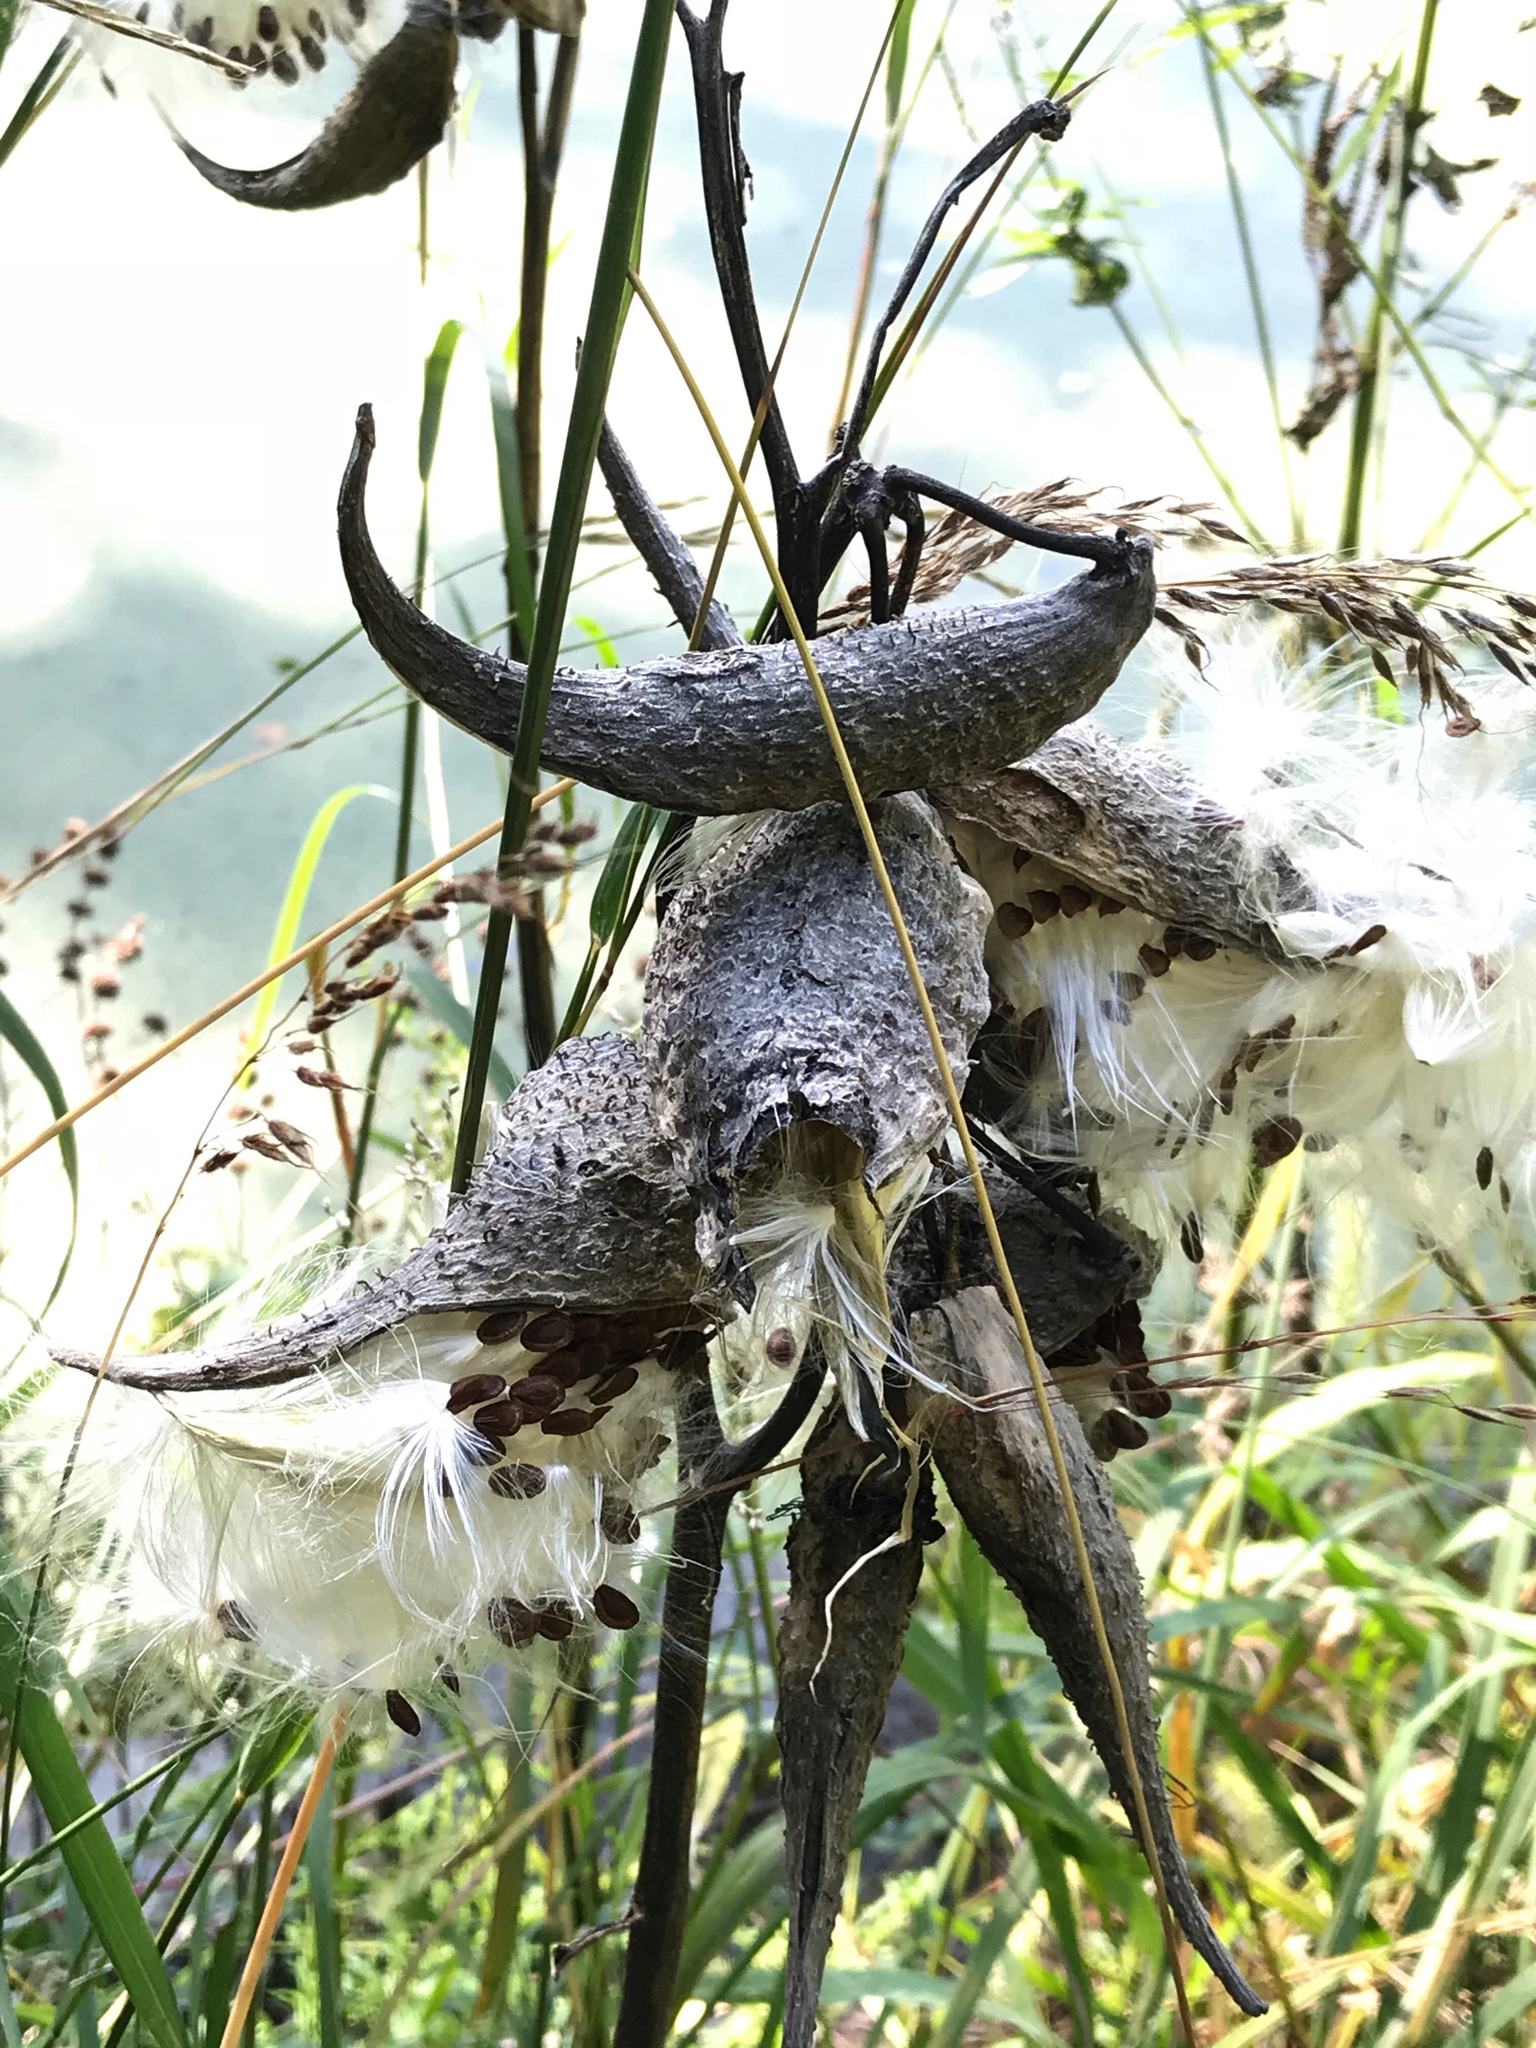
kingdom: Plantae
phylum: Tracheophyta
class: Magnoliopsida
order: Gentianales
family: Apocynaceae
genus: Asclepias
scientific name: Asclepias syriaca
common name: Common milkweed
